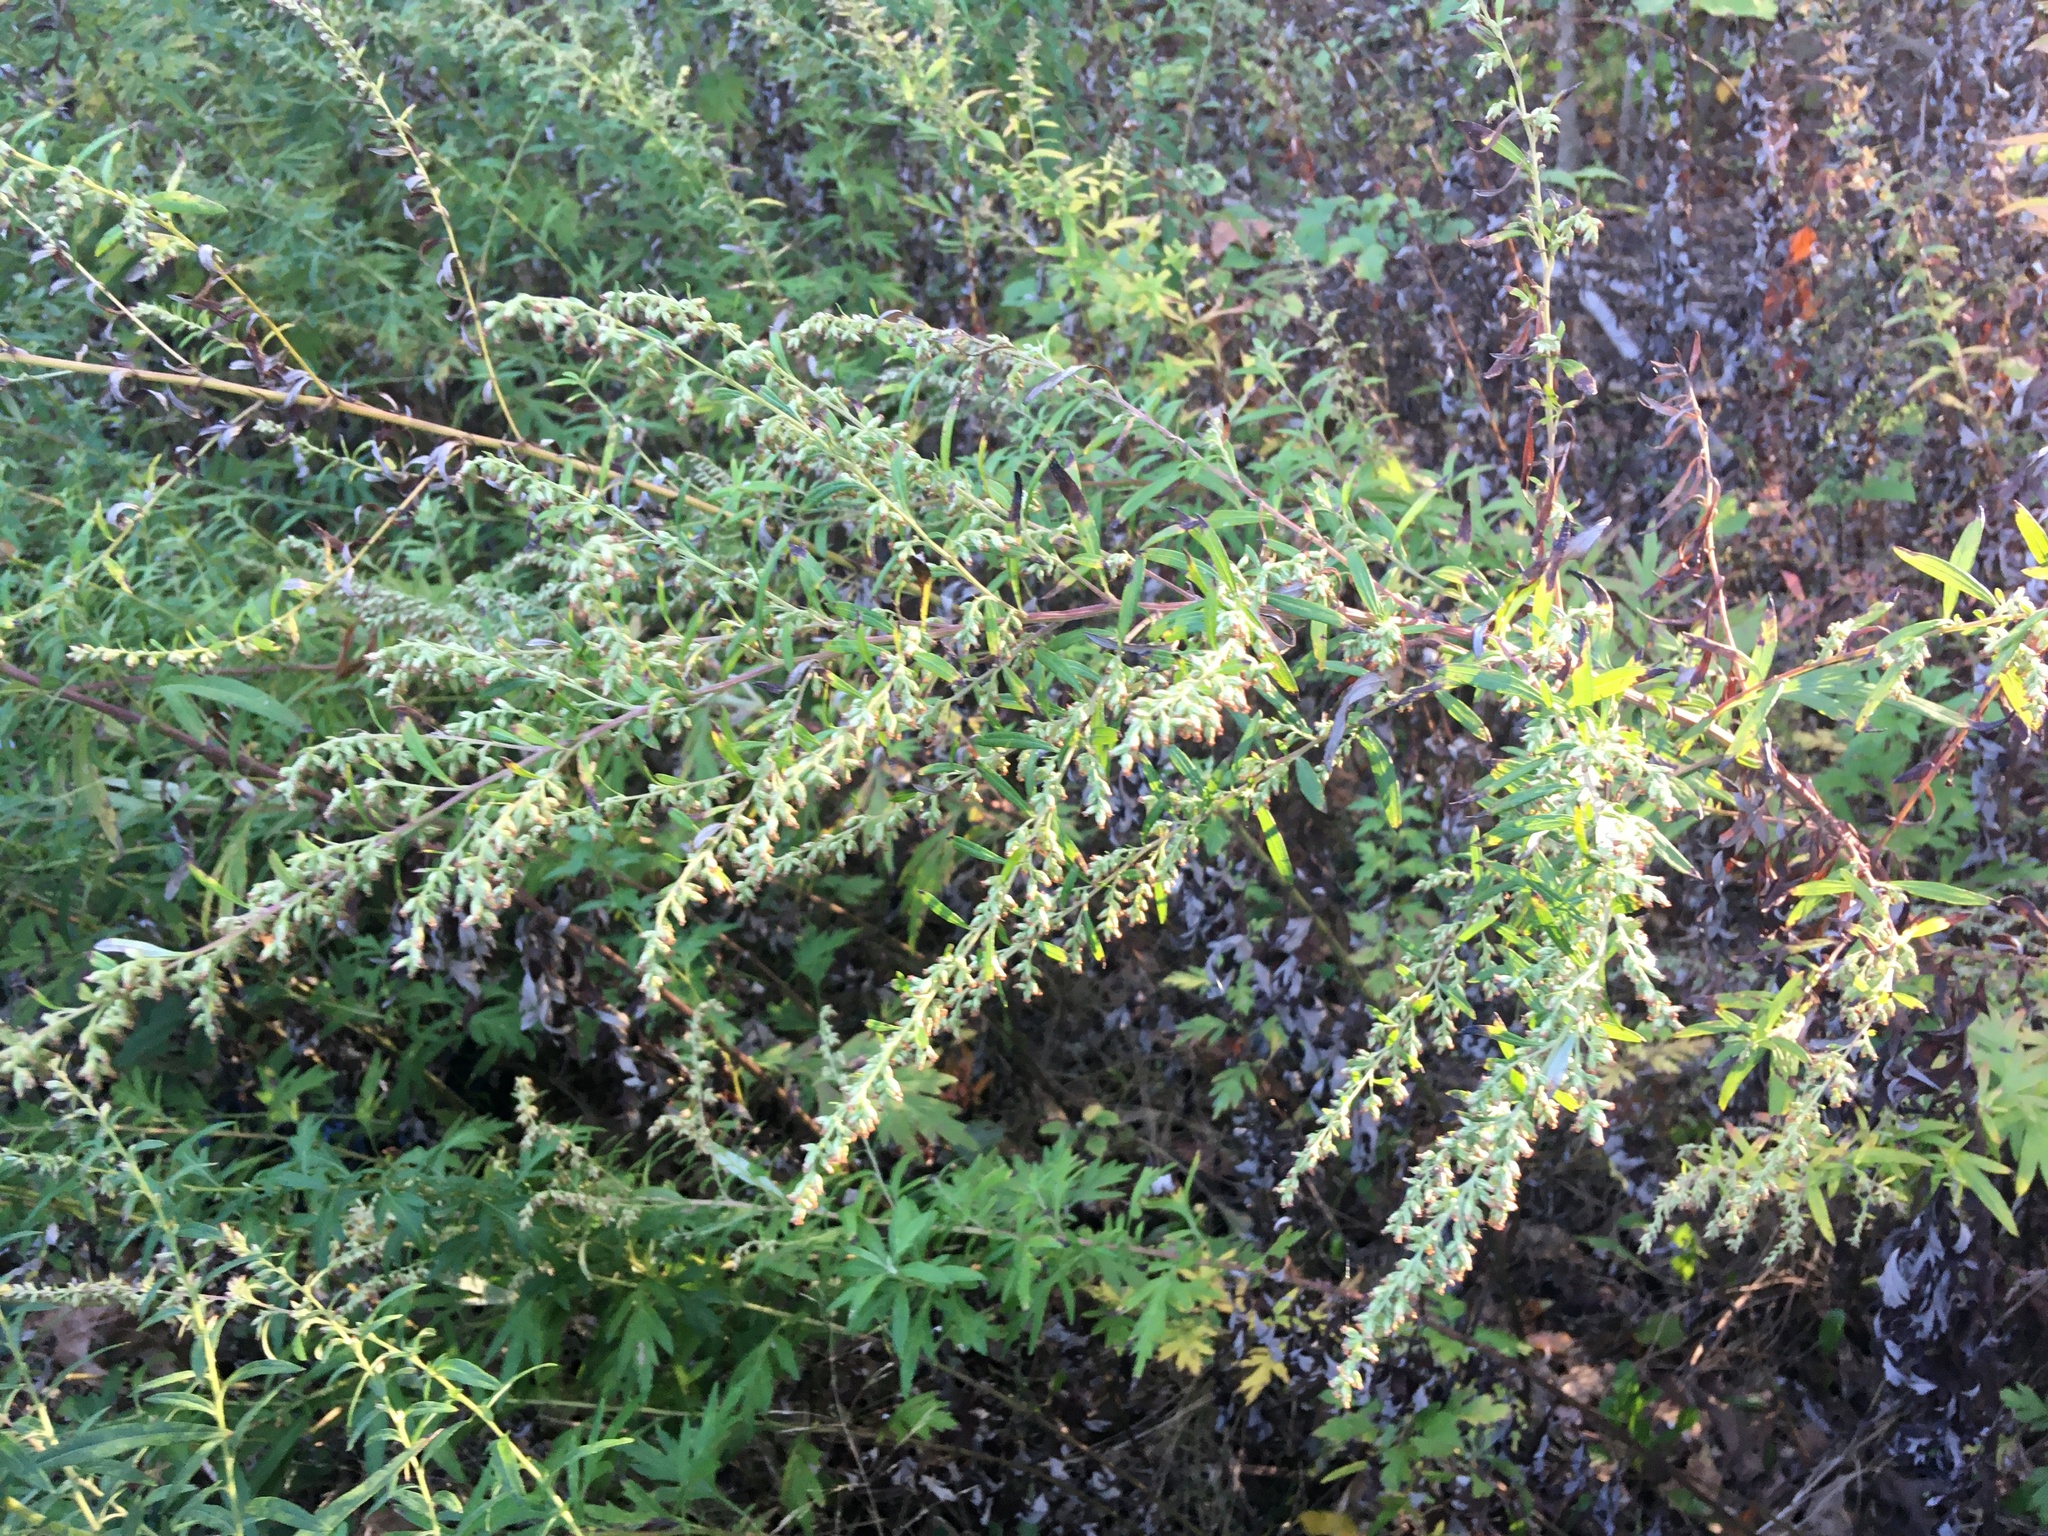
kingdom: Plantae
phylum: Tracheophyta
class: Magnoliopsida
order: Asterales
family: Asteraceae
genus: Artemisia
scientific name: Artemisia vulgaris
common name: Mugwort
